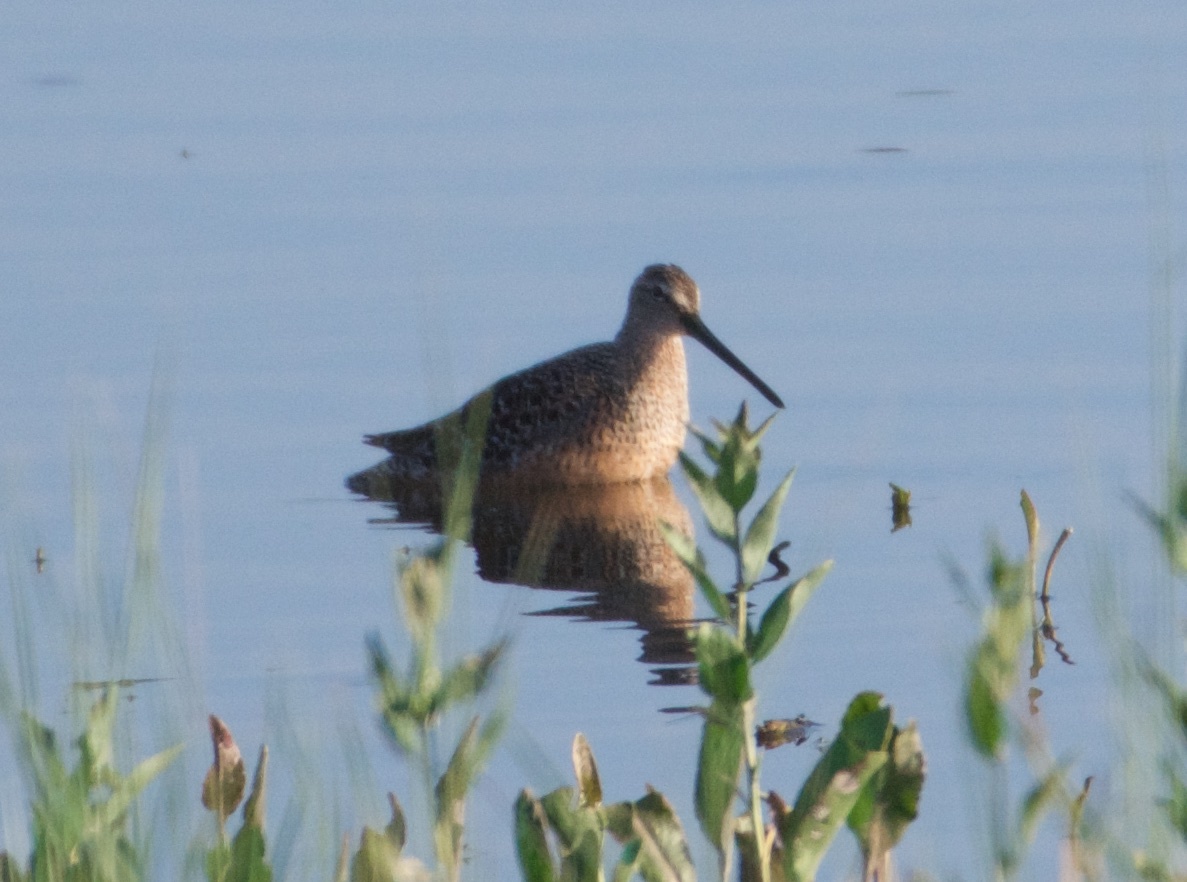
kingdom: Animalia
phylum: Chordata
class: Aves
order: Charadriiformes
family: Scolopacidae
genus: Limnodromus
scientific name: Limnodromus scolopaceus
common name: Long-billed dowitcher
